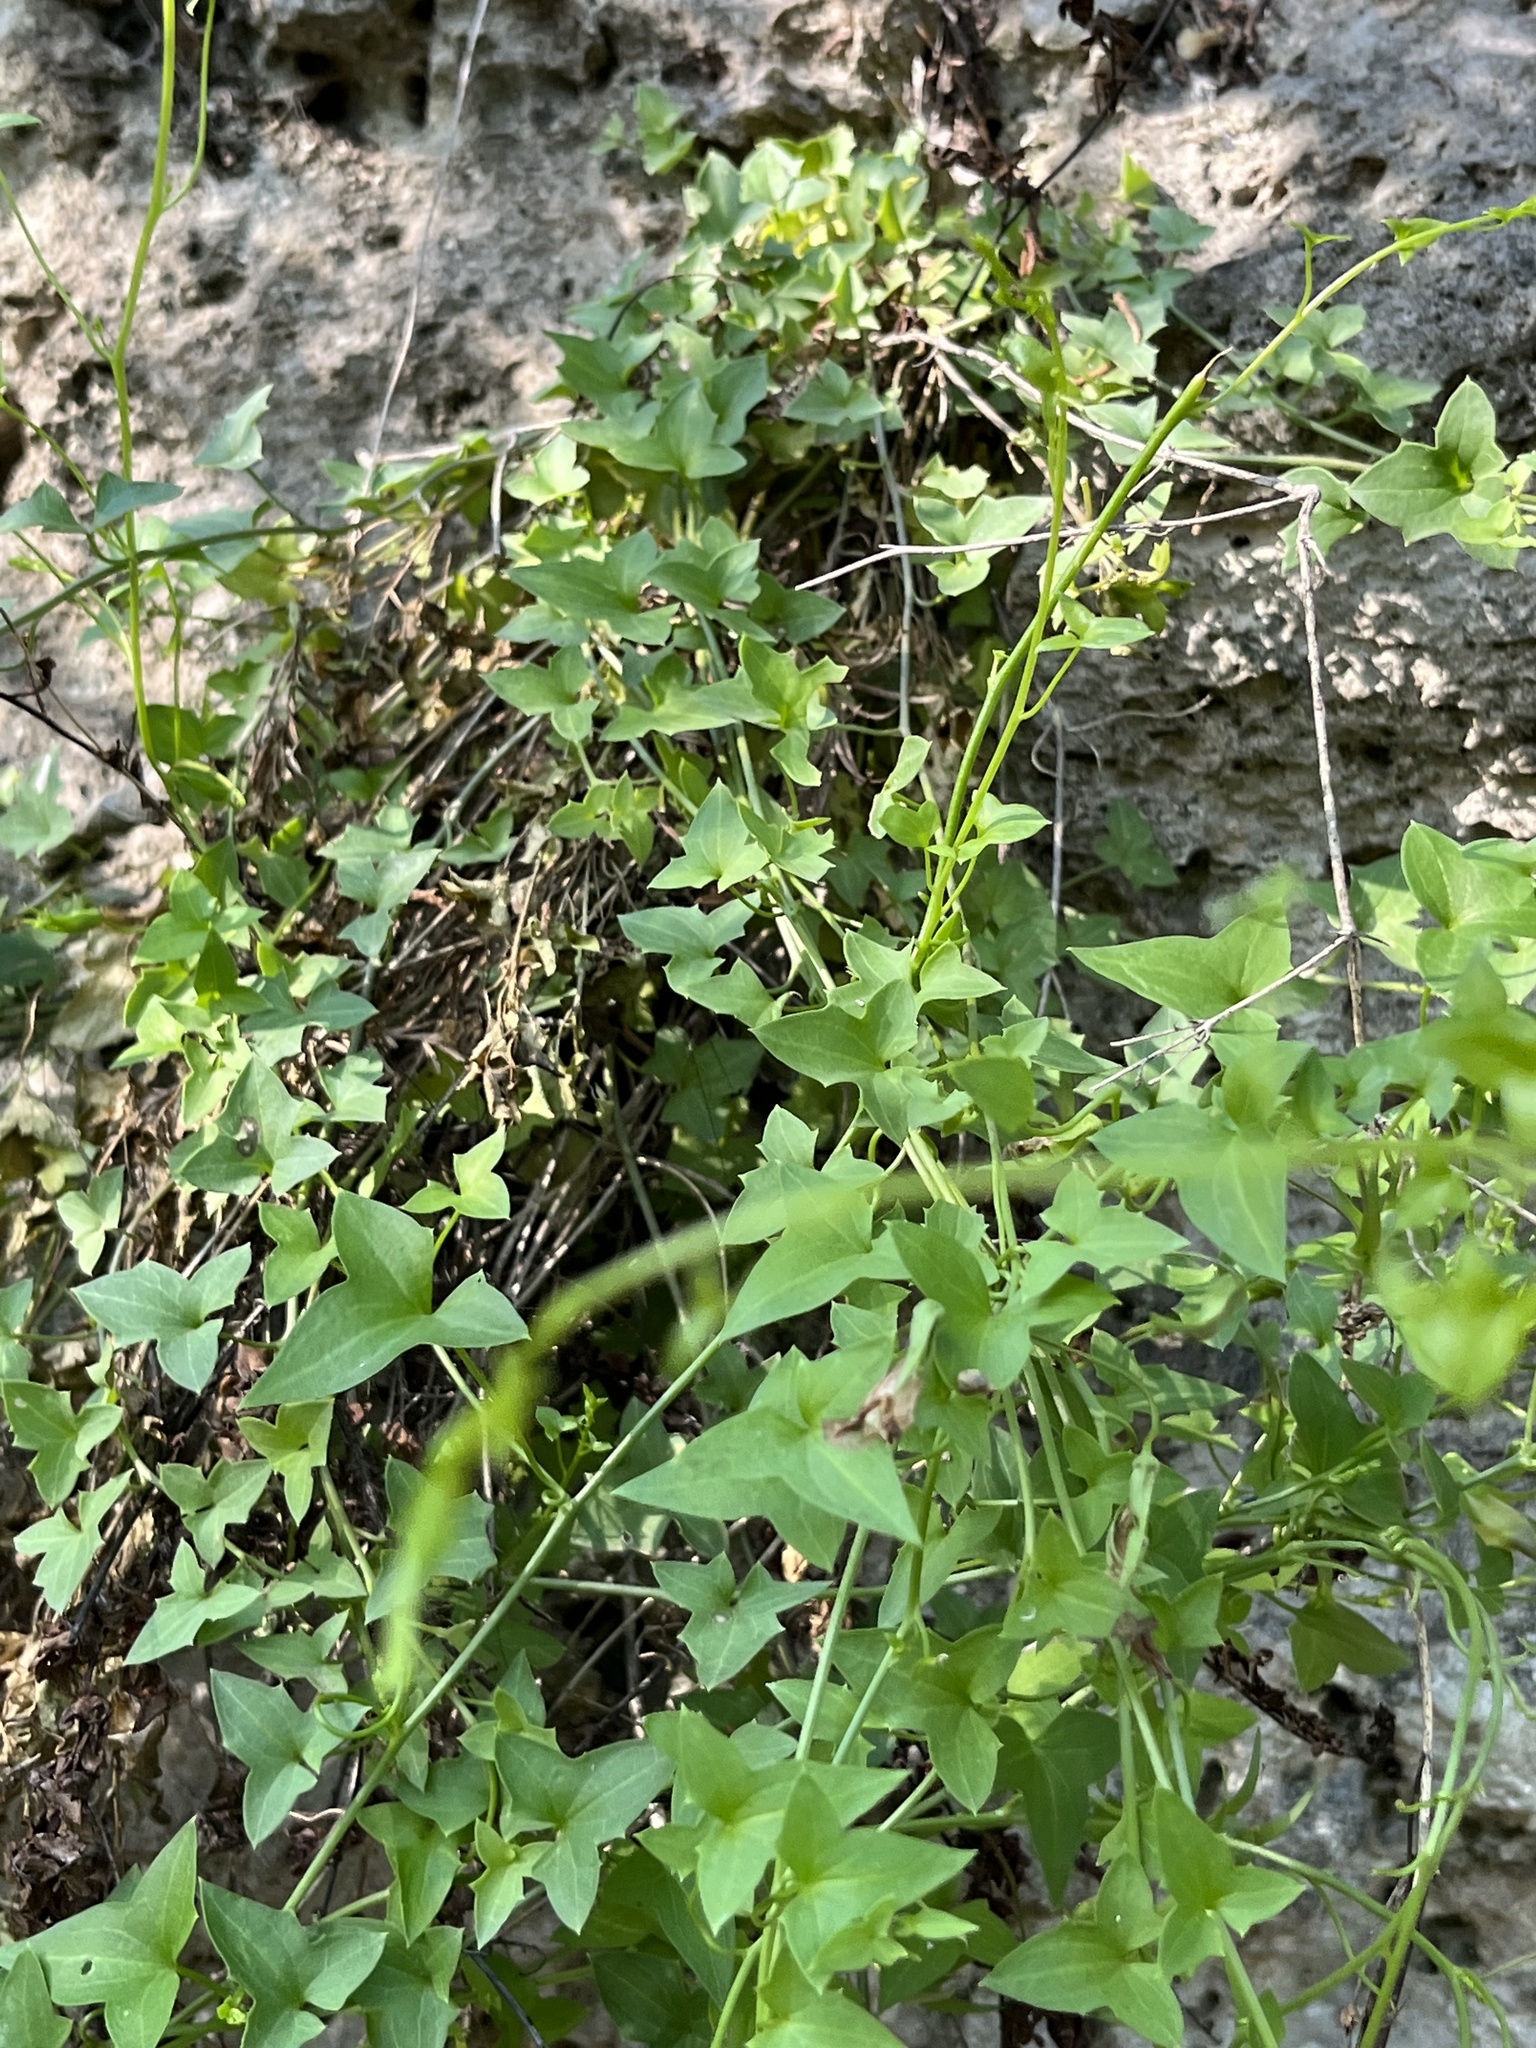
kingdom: Plantae
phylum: Tracheophyta
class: Magnoliopsida
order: Lamiales
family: Plantaginaceae
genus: Maurandella
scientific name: Maurandella antirrhiniflora
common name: Violet twining-snapdragon
